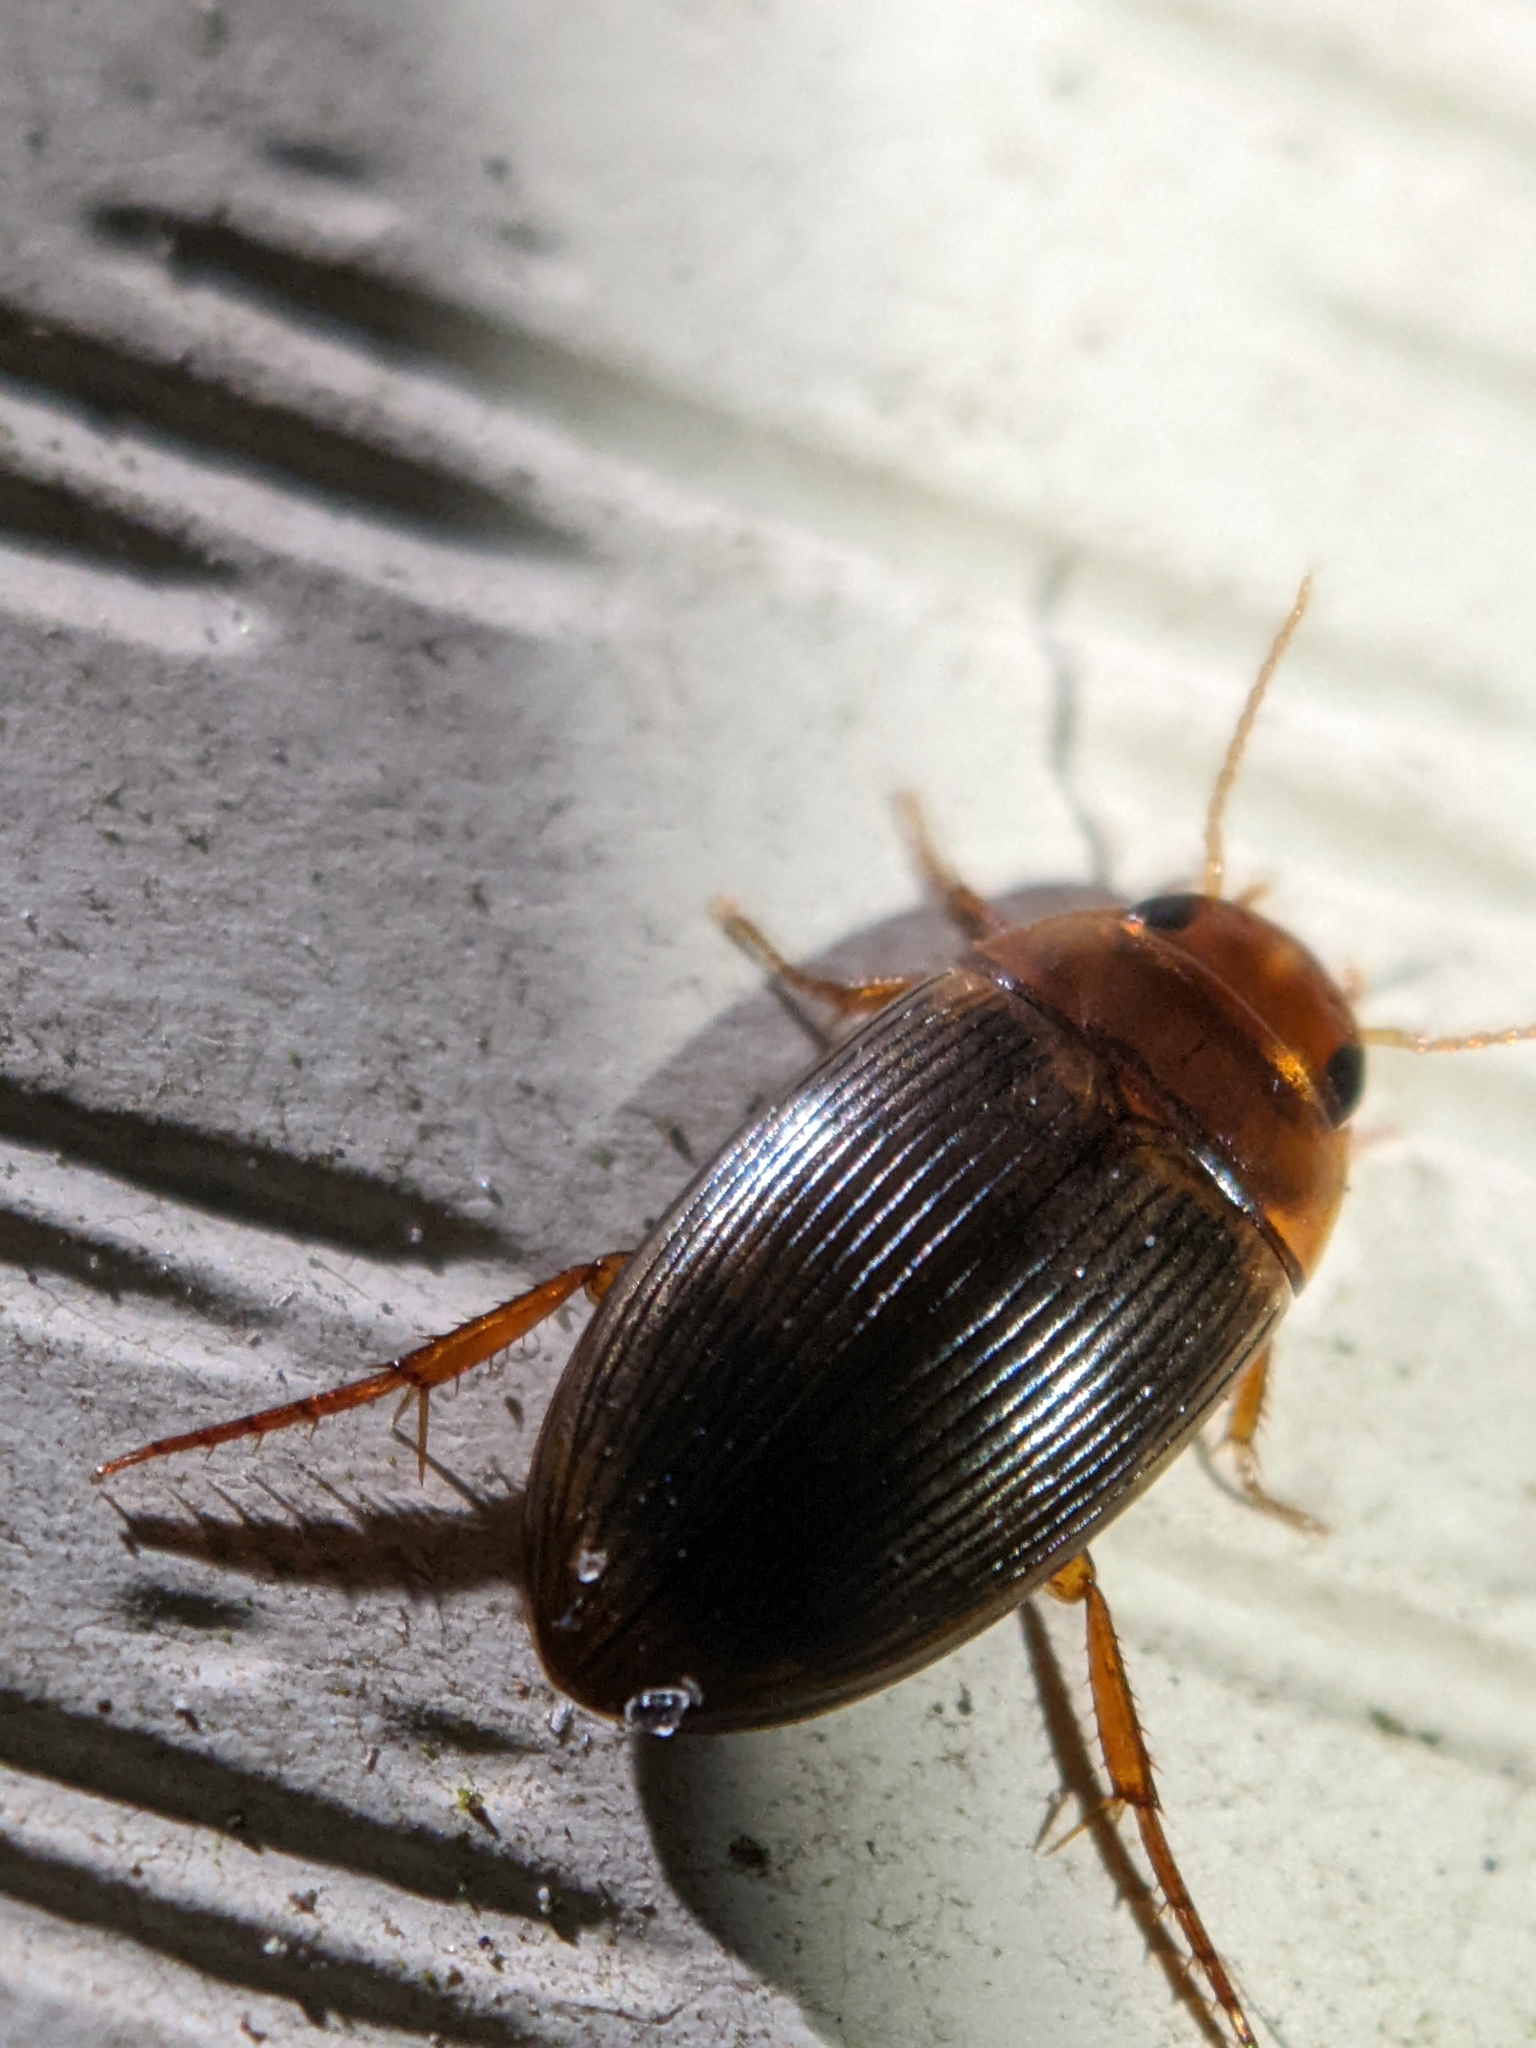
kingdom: Animalia
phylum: Arthropoda
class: Insecta
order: Coleoptera
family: Dytiscidae
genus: Copelatus
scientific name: Copelatus glyphicus
